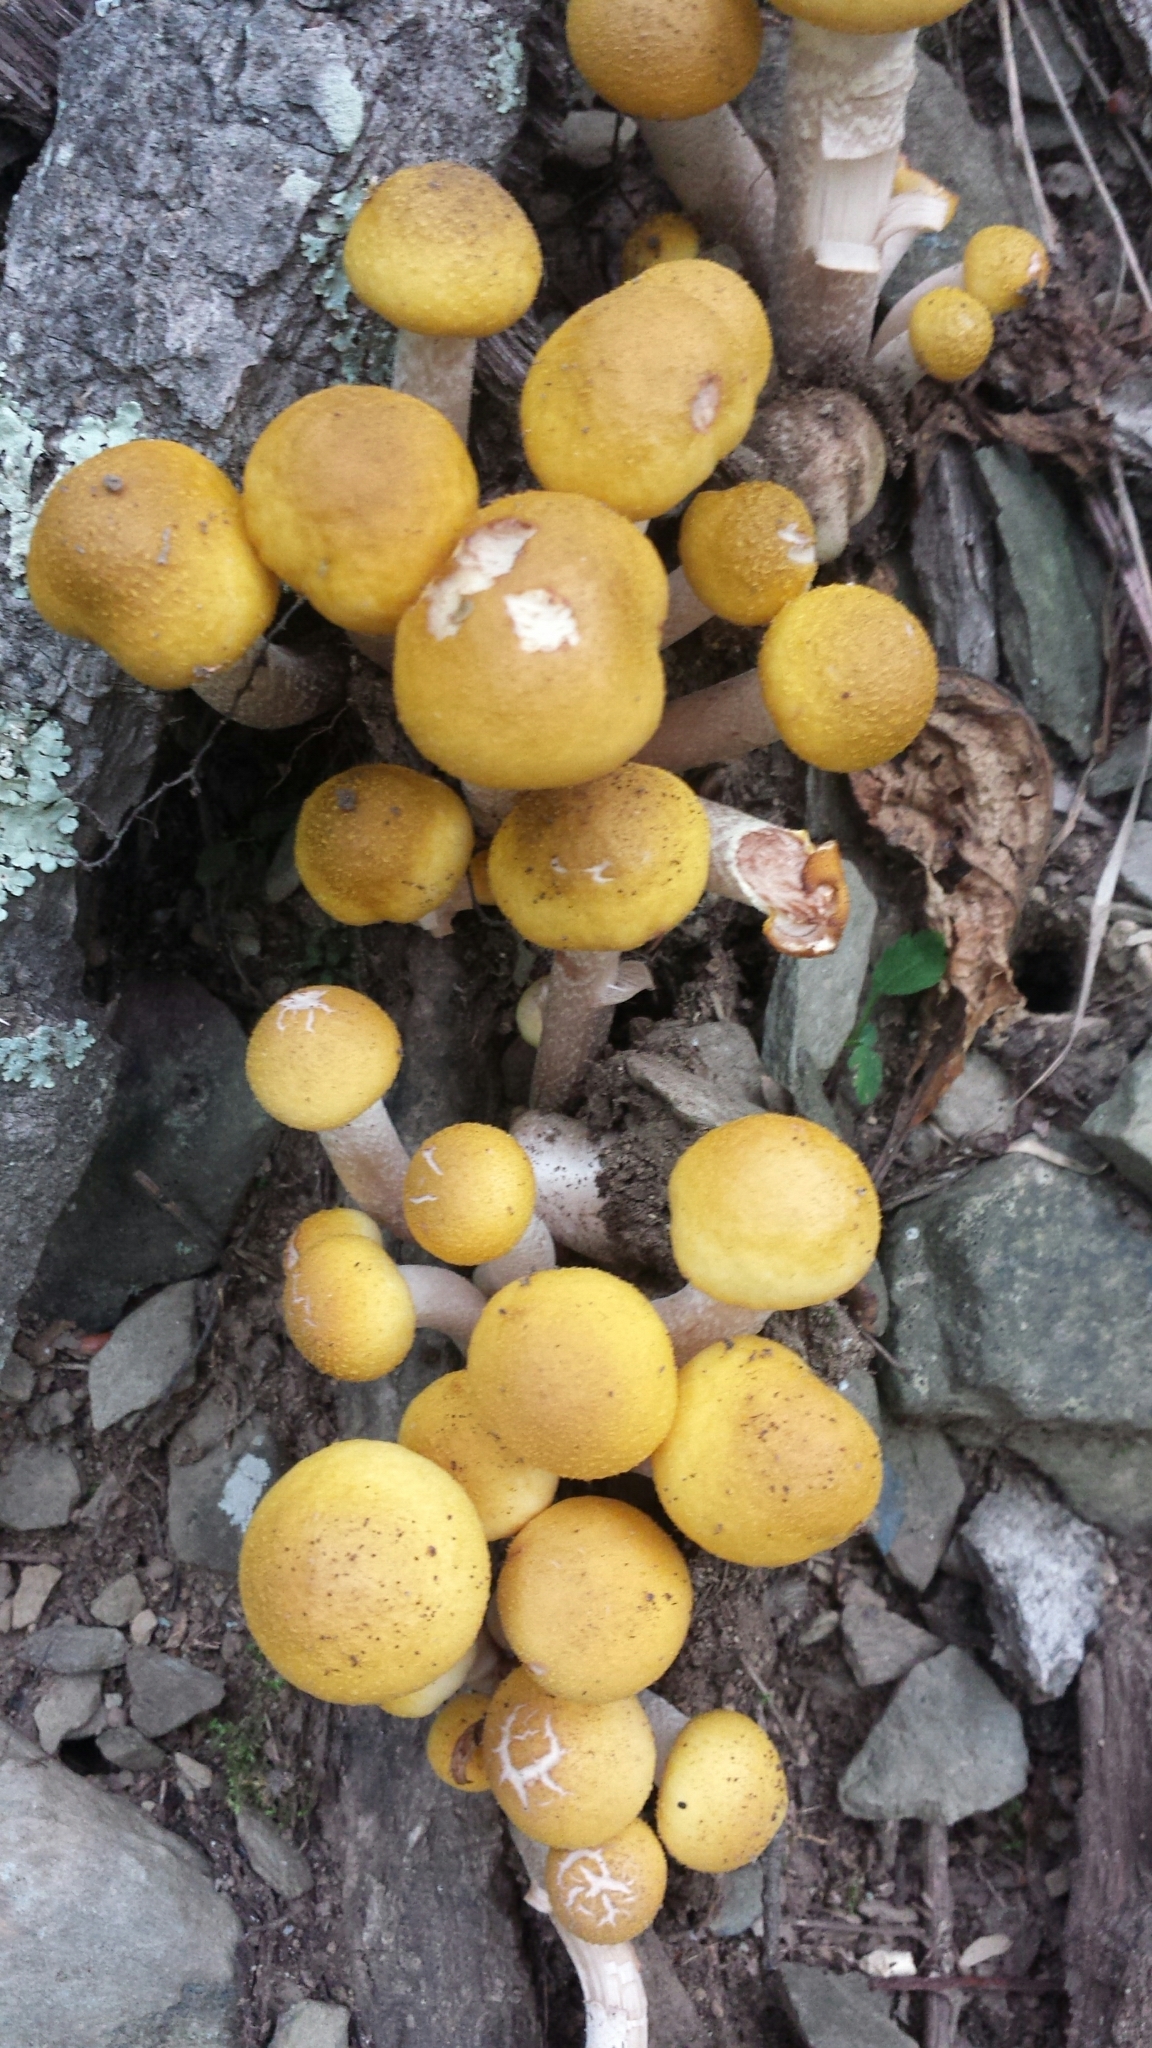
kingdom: Fungi
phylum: Basidiomycota
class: Agaricomycetes
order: Agaricales
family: Physalacriaceae
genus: Armillaria
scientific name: Armillaria mellea
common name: Honey fungus
